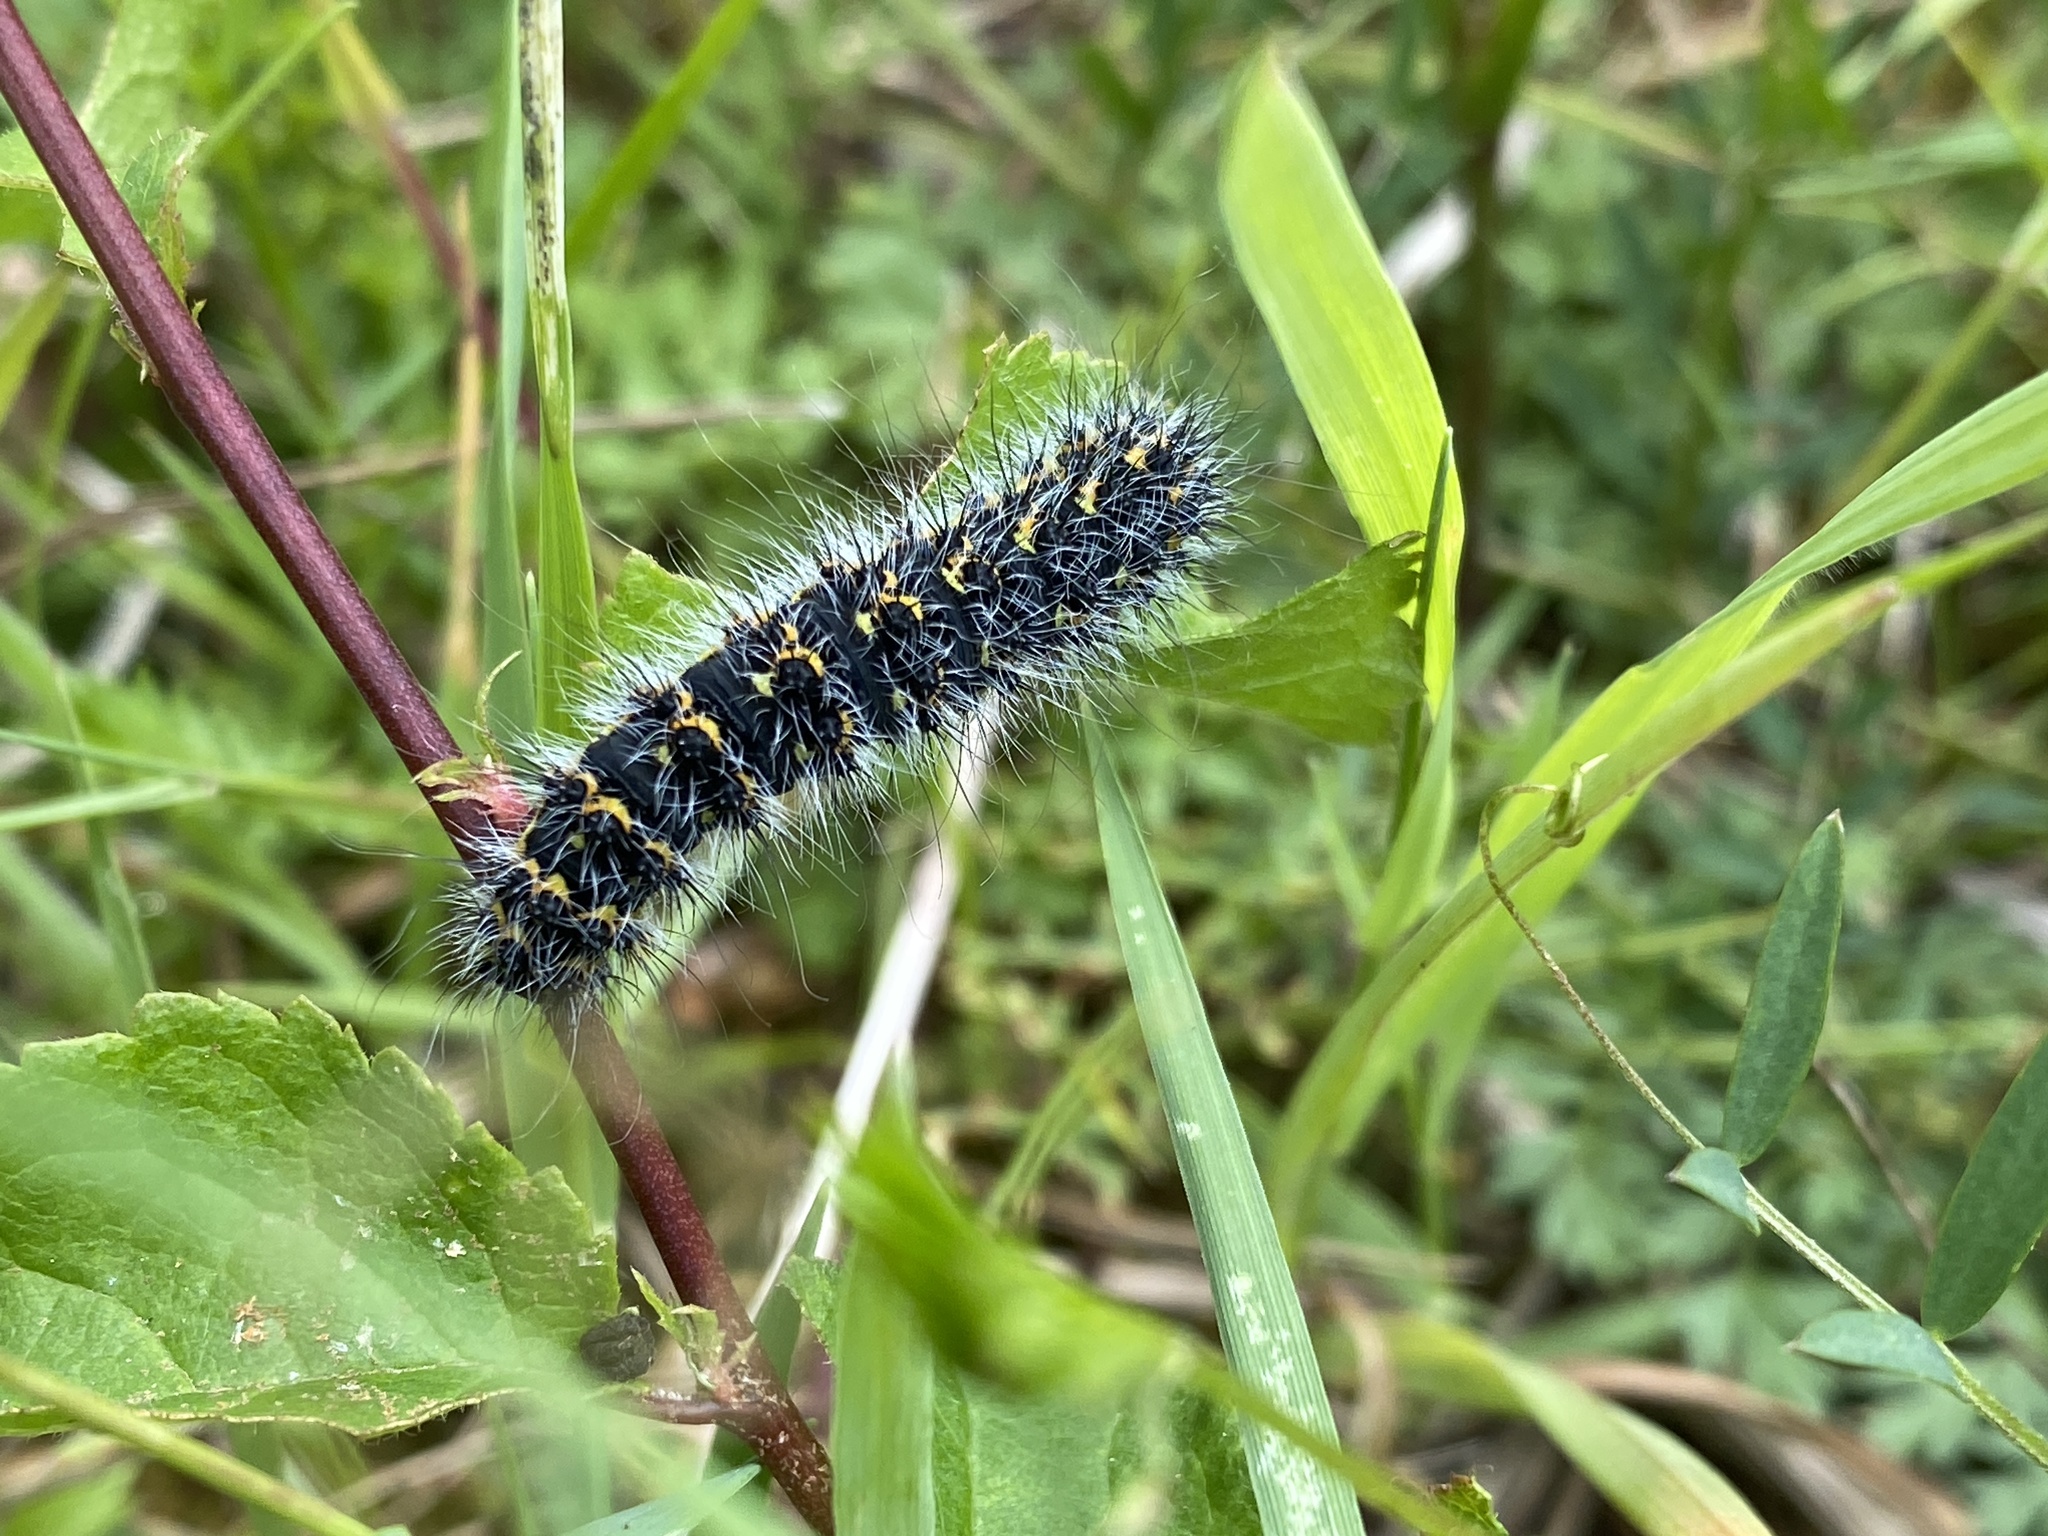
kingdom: Animalia
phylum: Arthropoda
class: Insecta
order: Lepidoptera
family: Saturniidae
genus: Saturnia
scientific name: Saturnia pavonia
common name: Emperor moth
